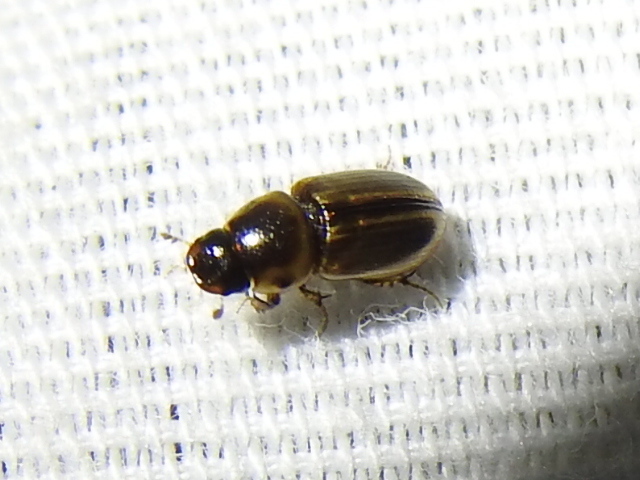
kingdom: Animalia
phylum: Arthropoda
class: Insecta
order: Coleoptera
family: Scarabaeidae
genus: Labarrus
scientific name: Labarrus lividus
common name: Scarab beetle
